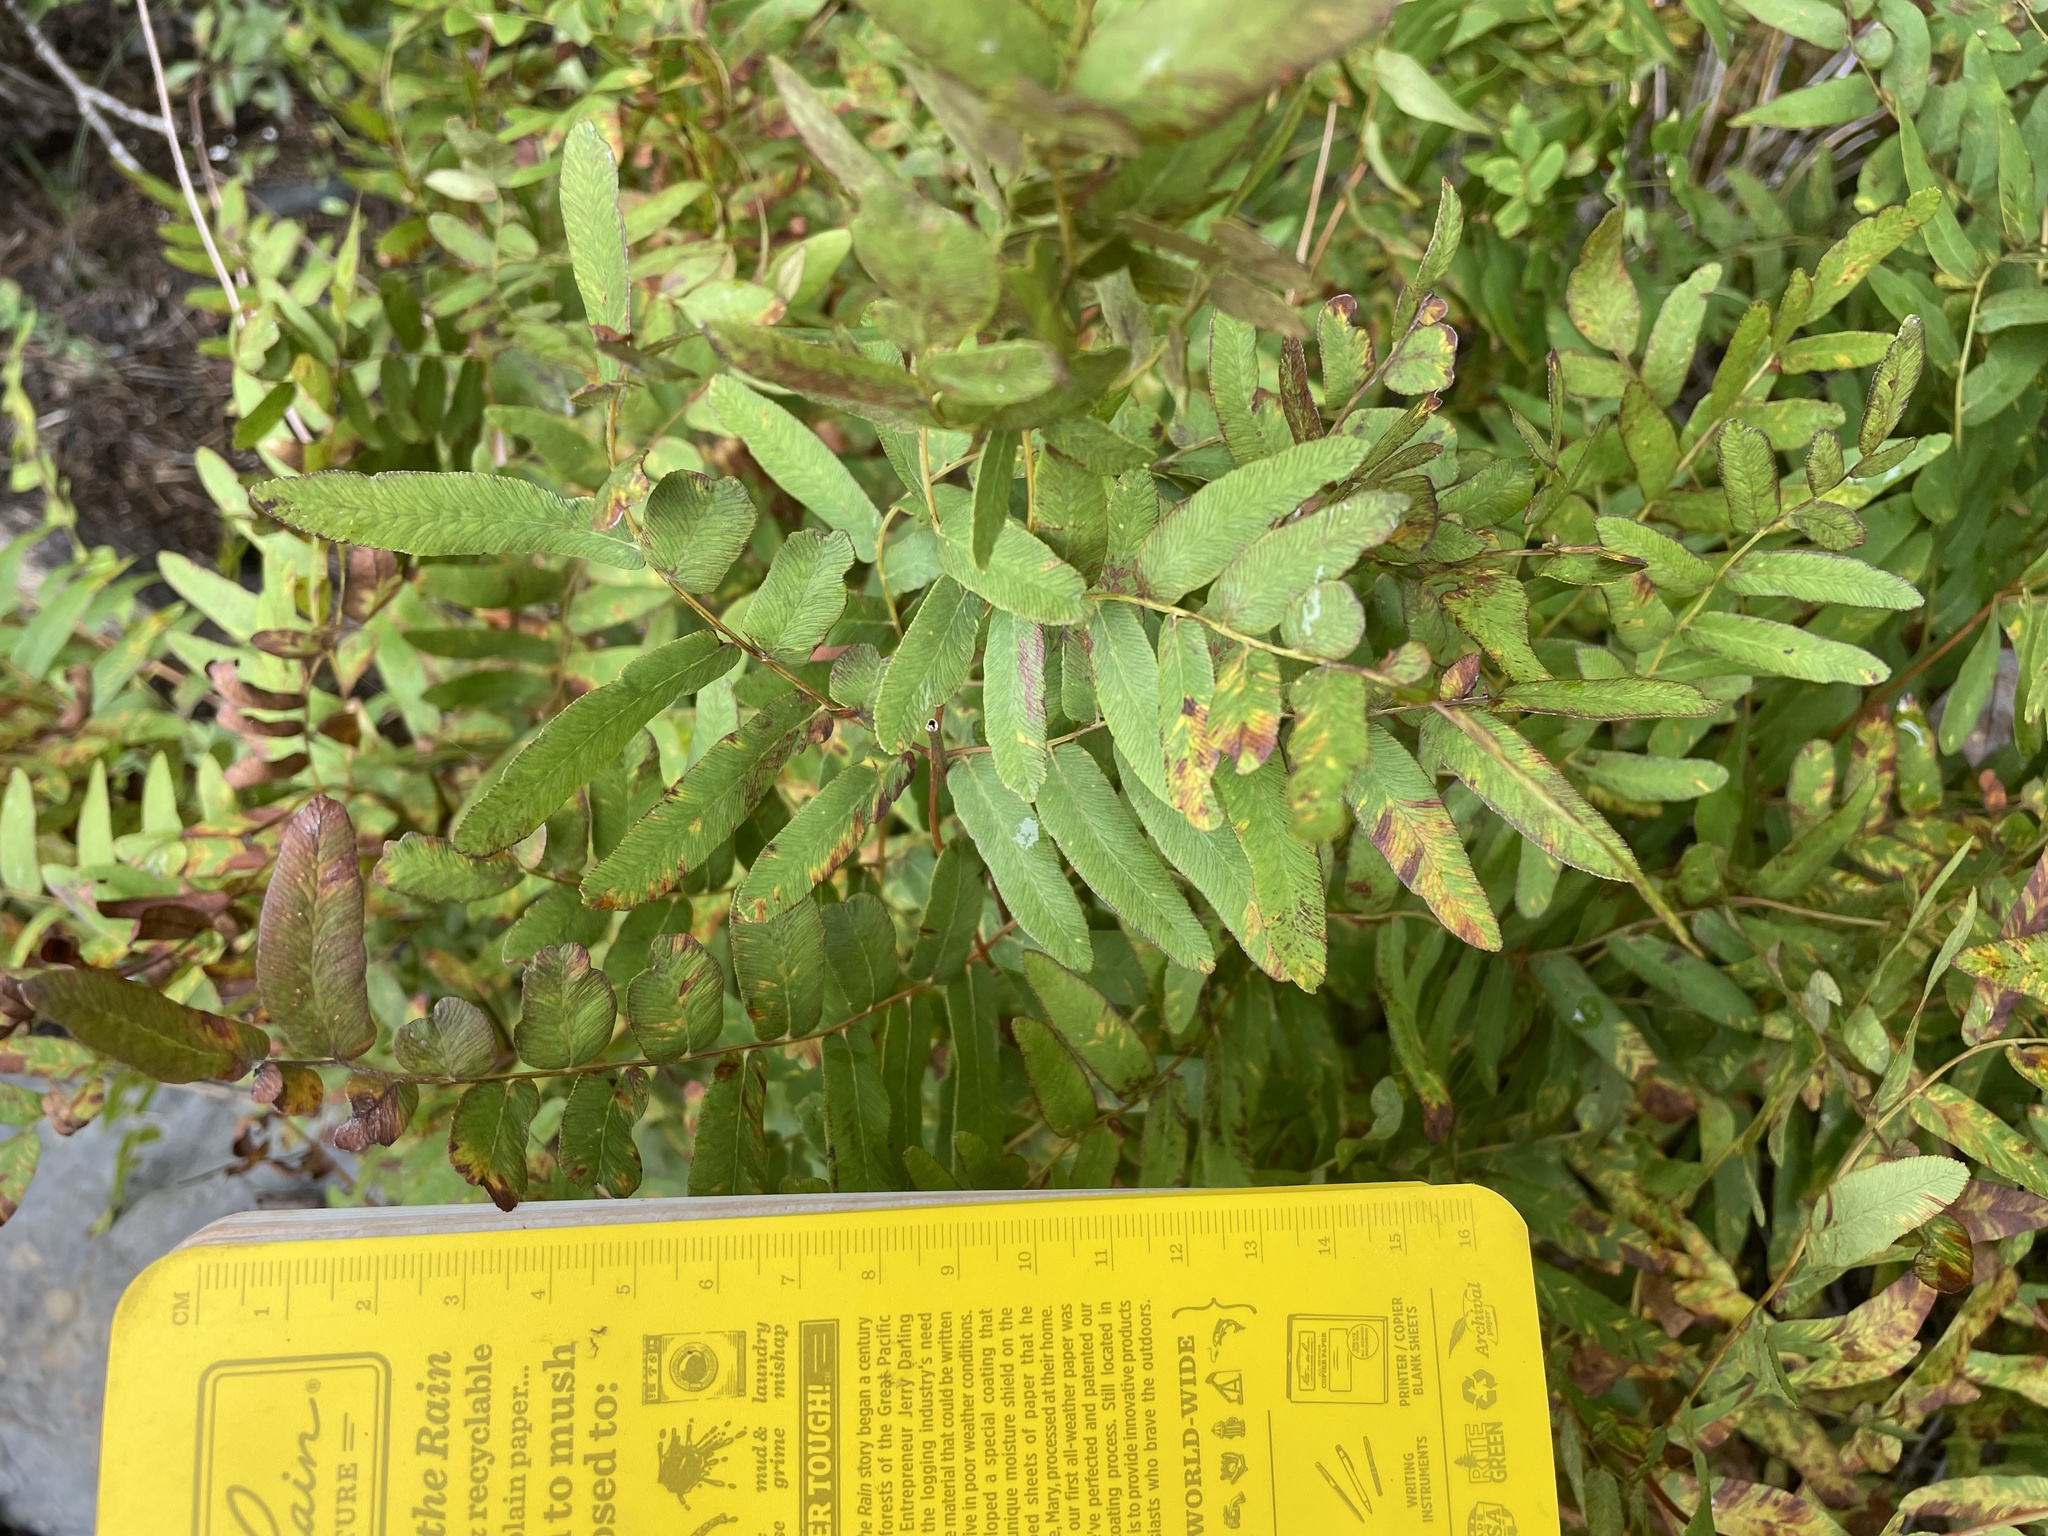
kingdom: Plantae
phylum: Tracheophyta
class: Polypodiopsida
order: Osmundales
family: Osmundaceae
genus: Osmunda
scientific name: Osmunda spectabilis
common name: American royal fern
